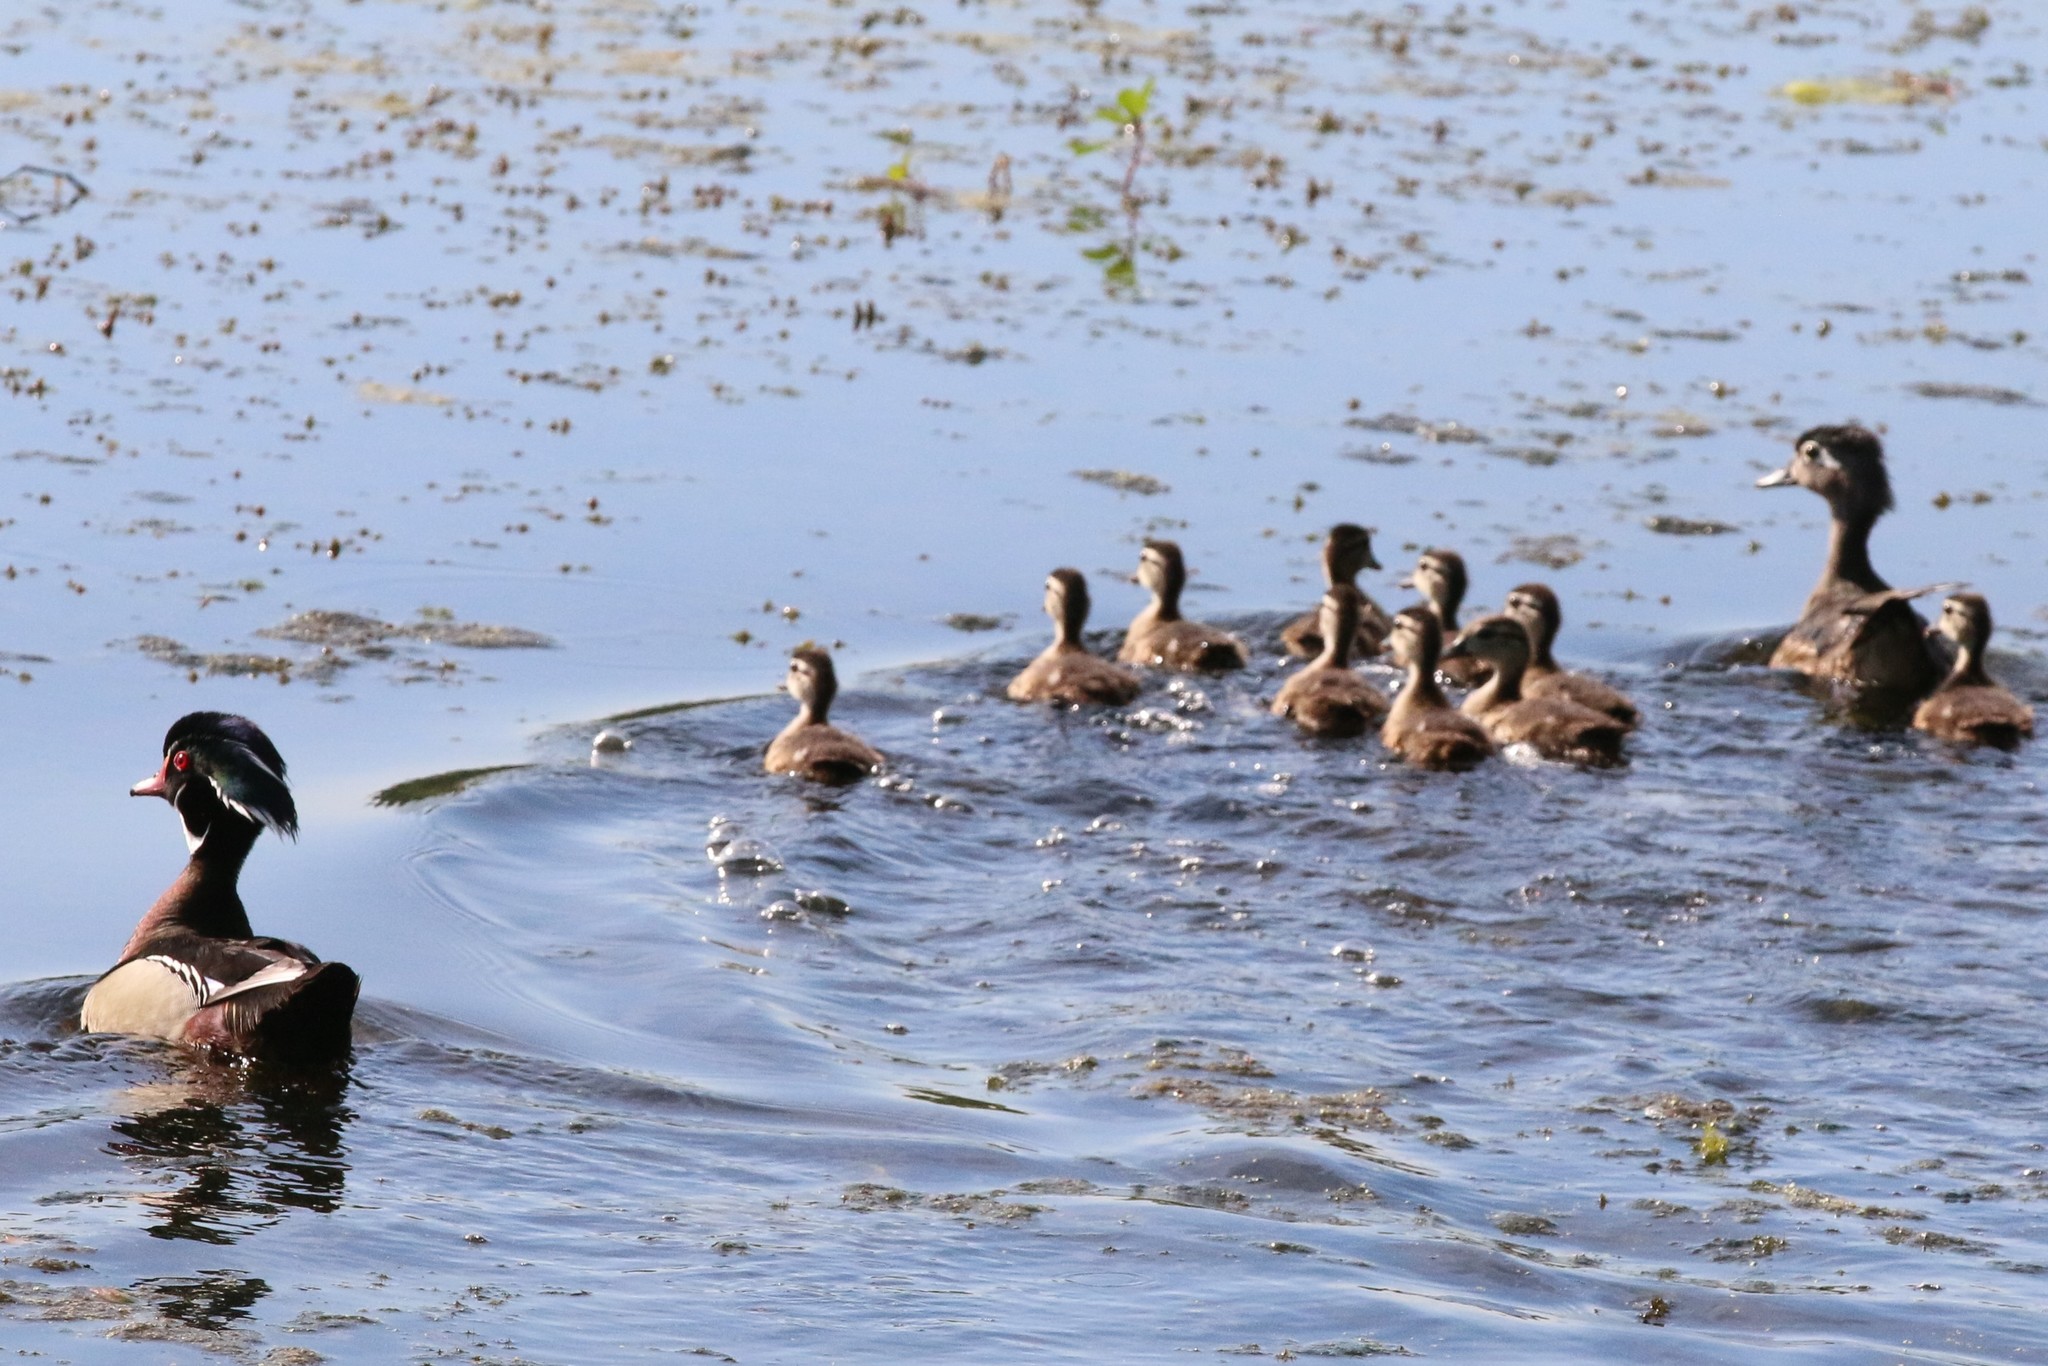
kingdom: Animalia
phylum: Chordata
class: Aves
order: Anseriformes
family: Anatidae
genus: Aix
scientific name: Aix sponsa
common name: Wood duck
